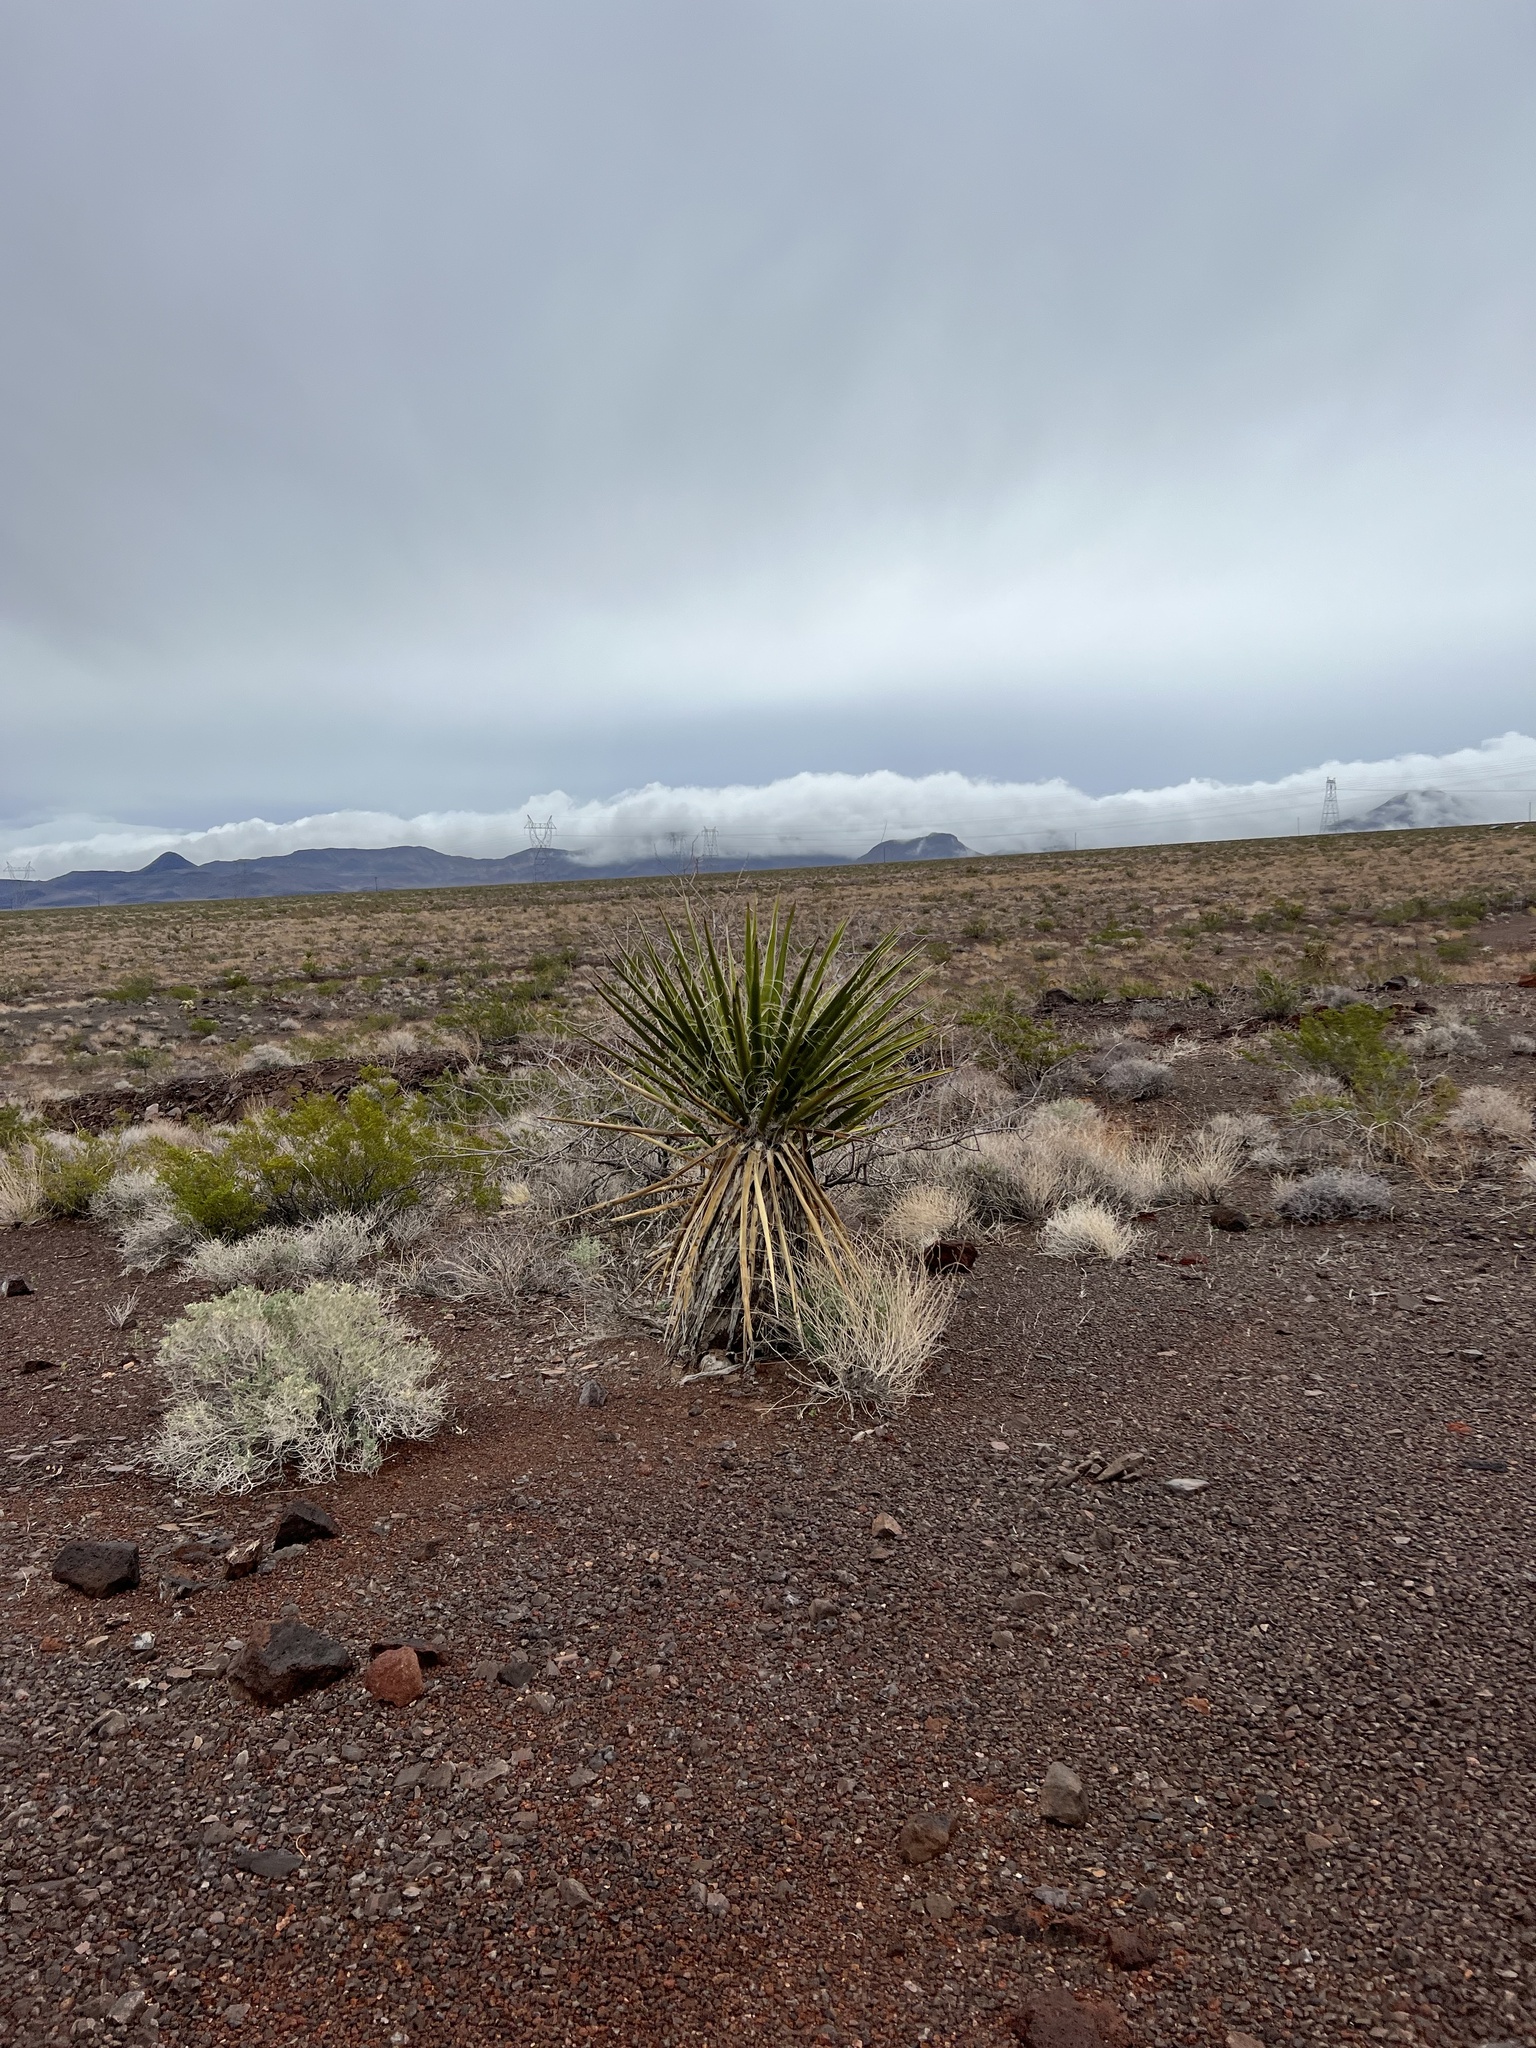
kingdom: Plantae
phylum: Tracheophyta
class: Liliopsida
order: Asparagales
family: Asparagaceae
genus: Yucca
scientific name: Yucca schidigera
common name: Mojave yucca
